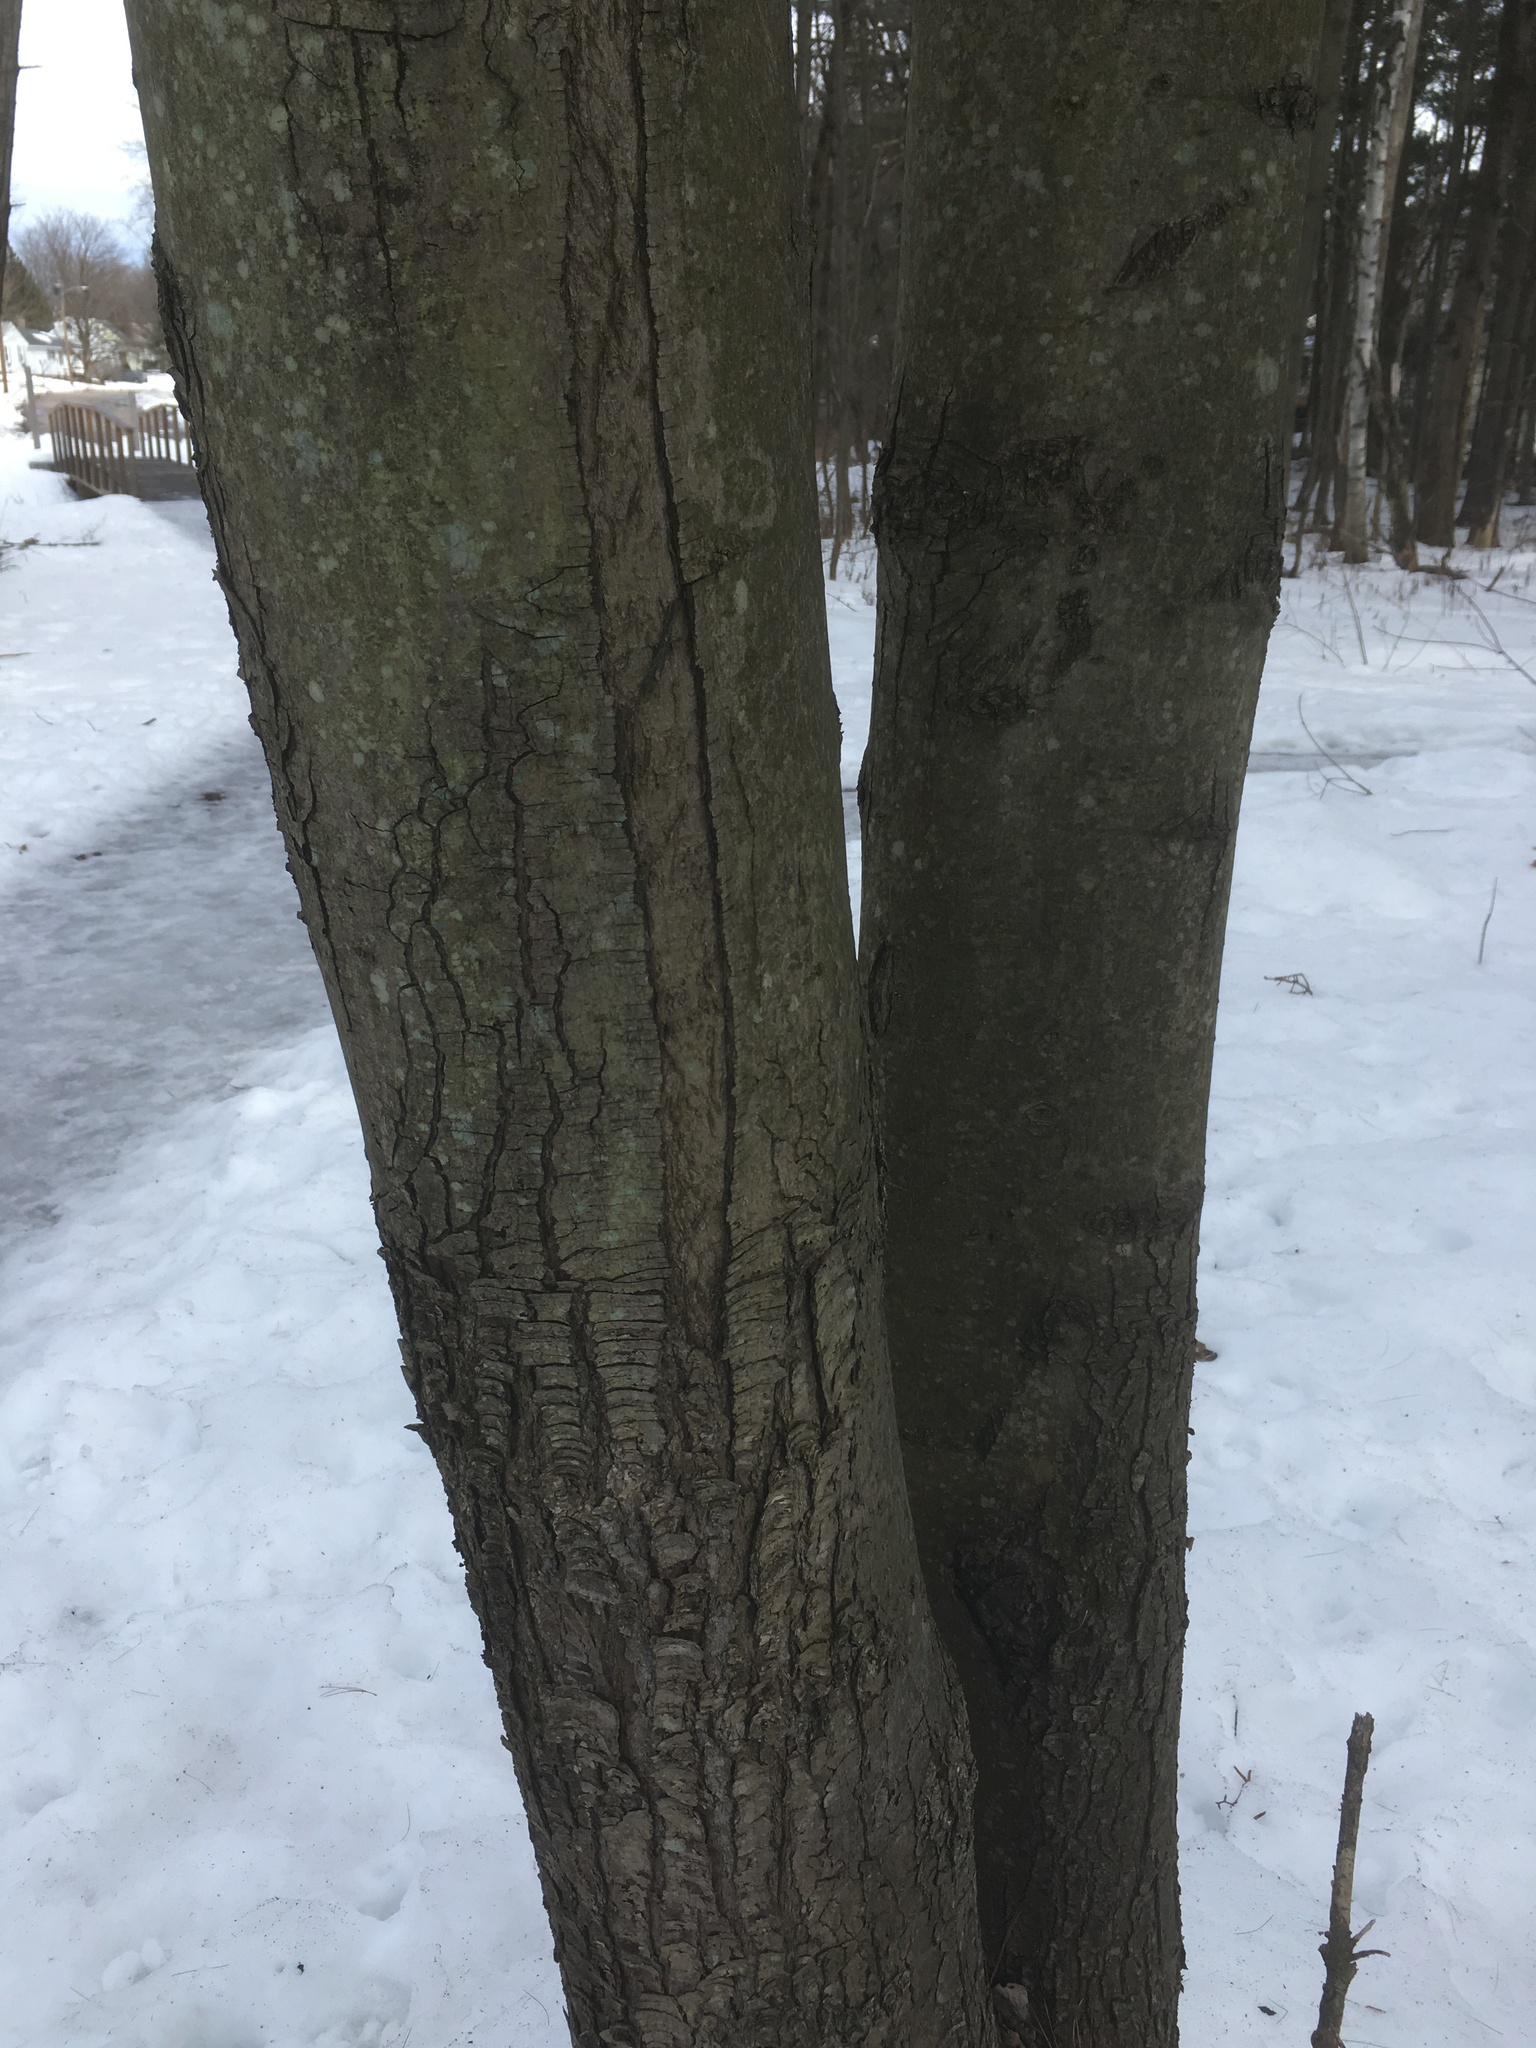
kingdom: Plantae
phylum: Tracheophyta
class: Magnoliopsida
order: Sapindales
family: Sapindaceae
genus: Acer
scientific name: Acer rubrum
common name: Red maple
